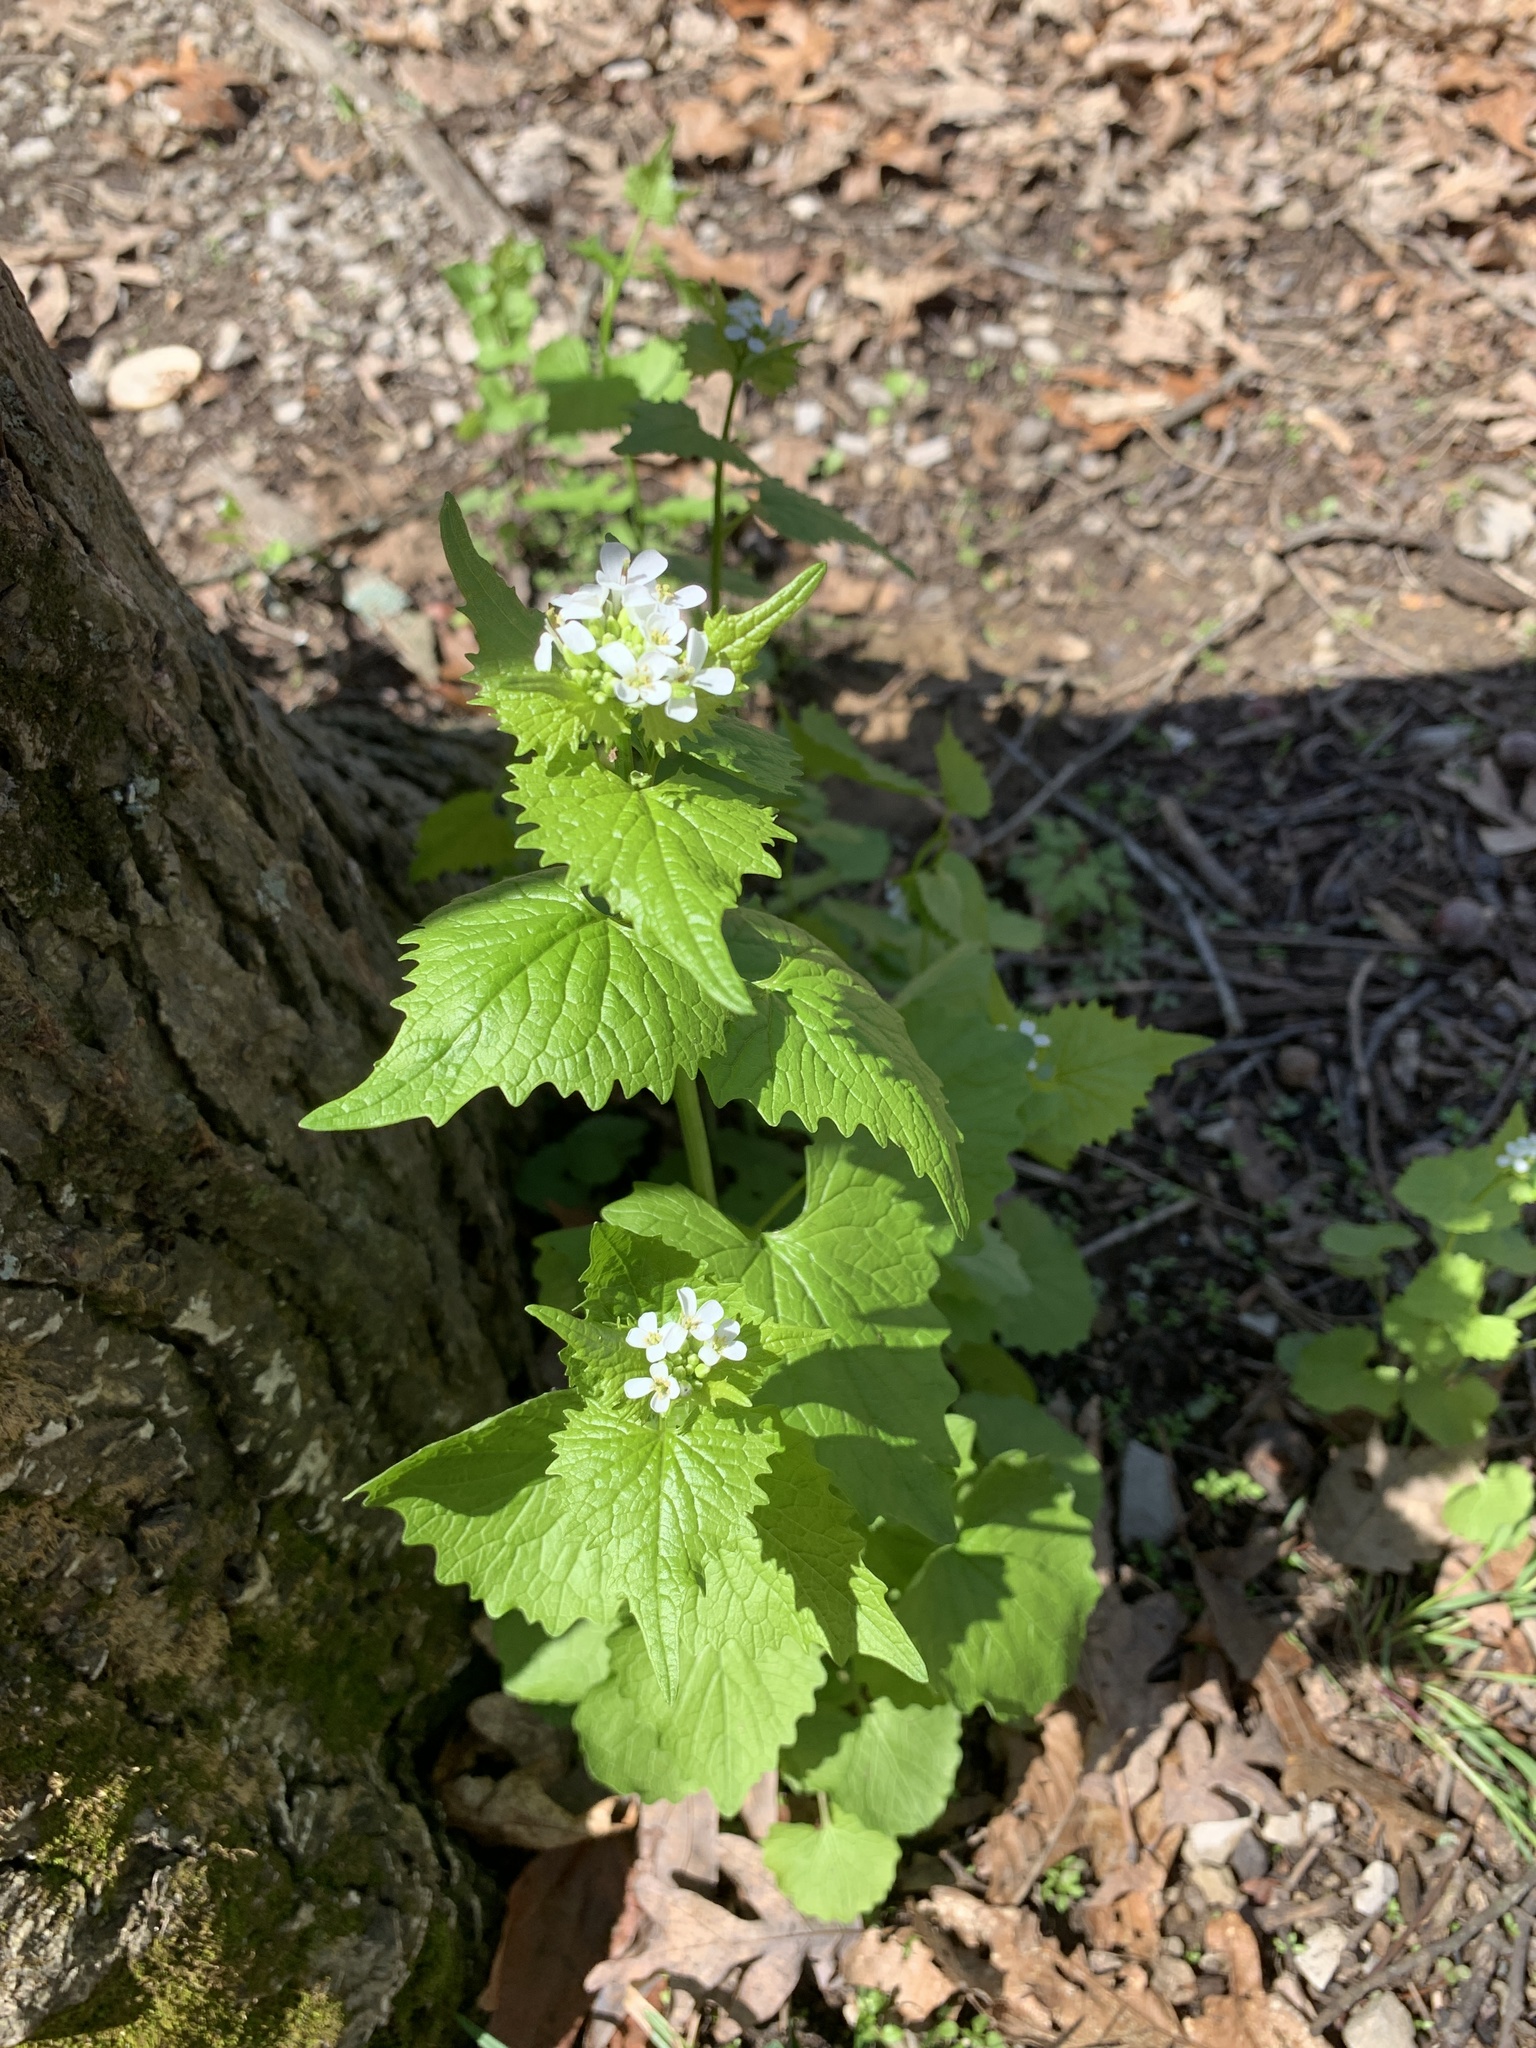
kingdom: Plantae
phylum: Tracheophyta
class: Magnoliopsida
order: Brassicales
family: Brassicaceae
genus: Alliaria
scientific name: Alliaria petiolata
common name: Garlic mustard
